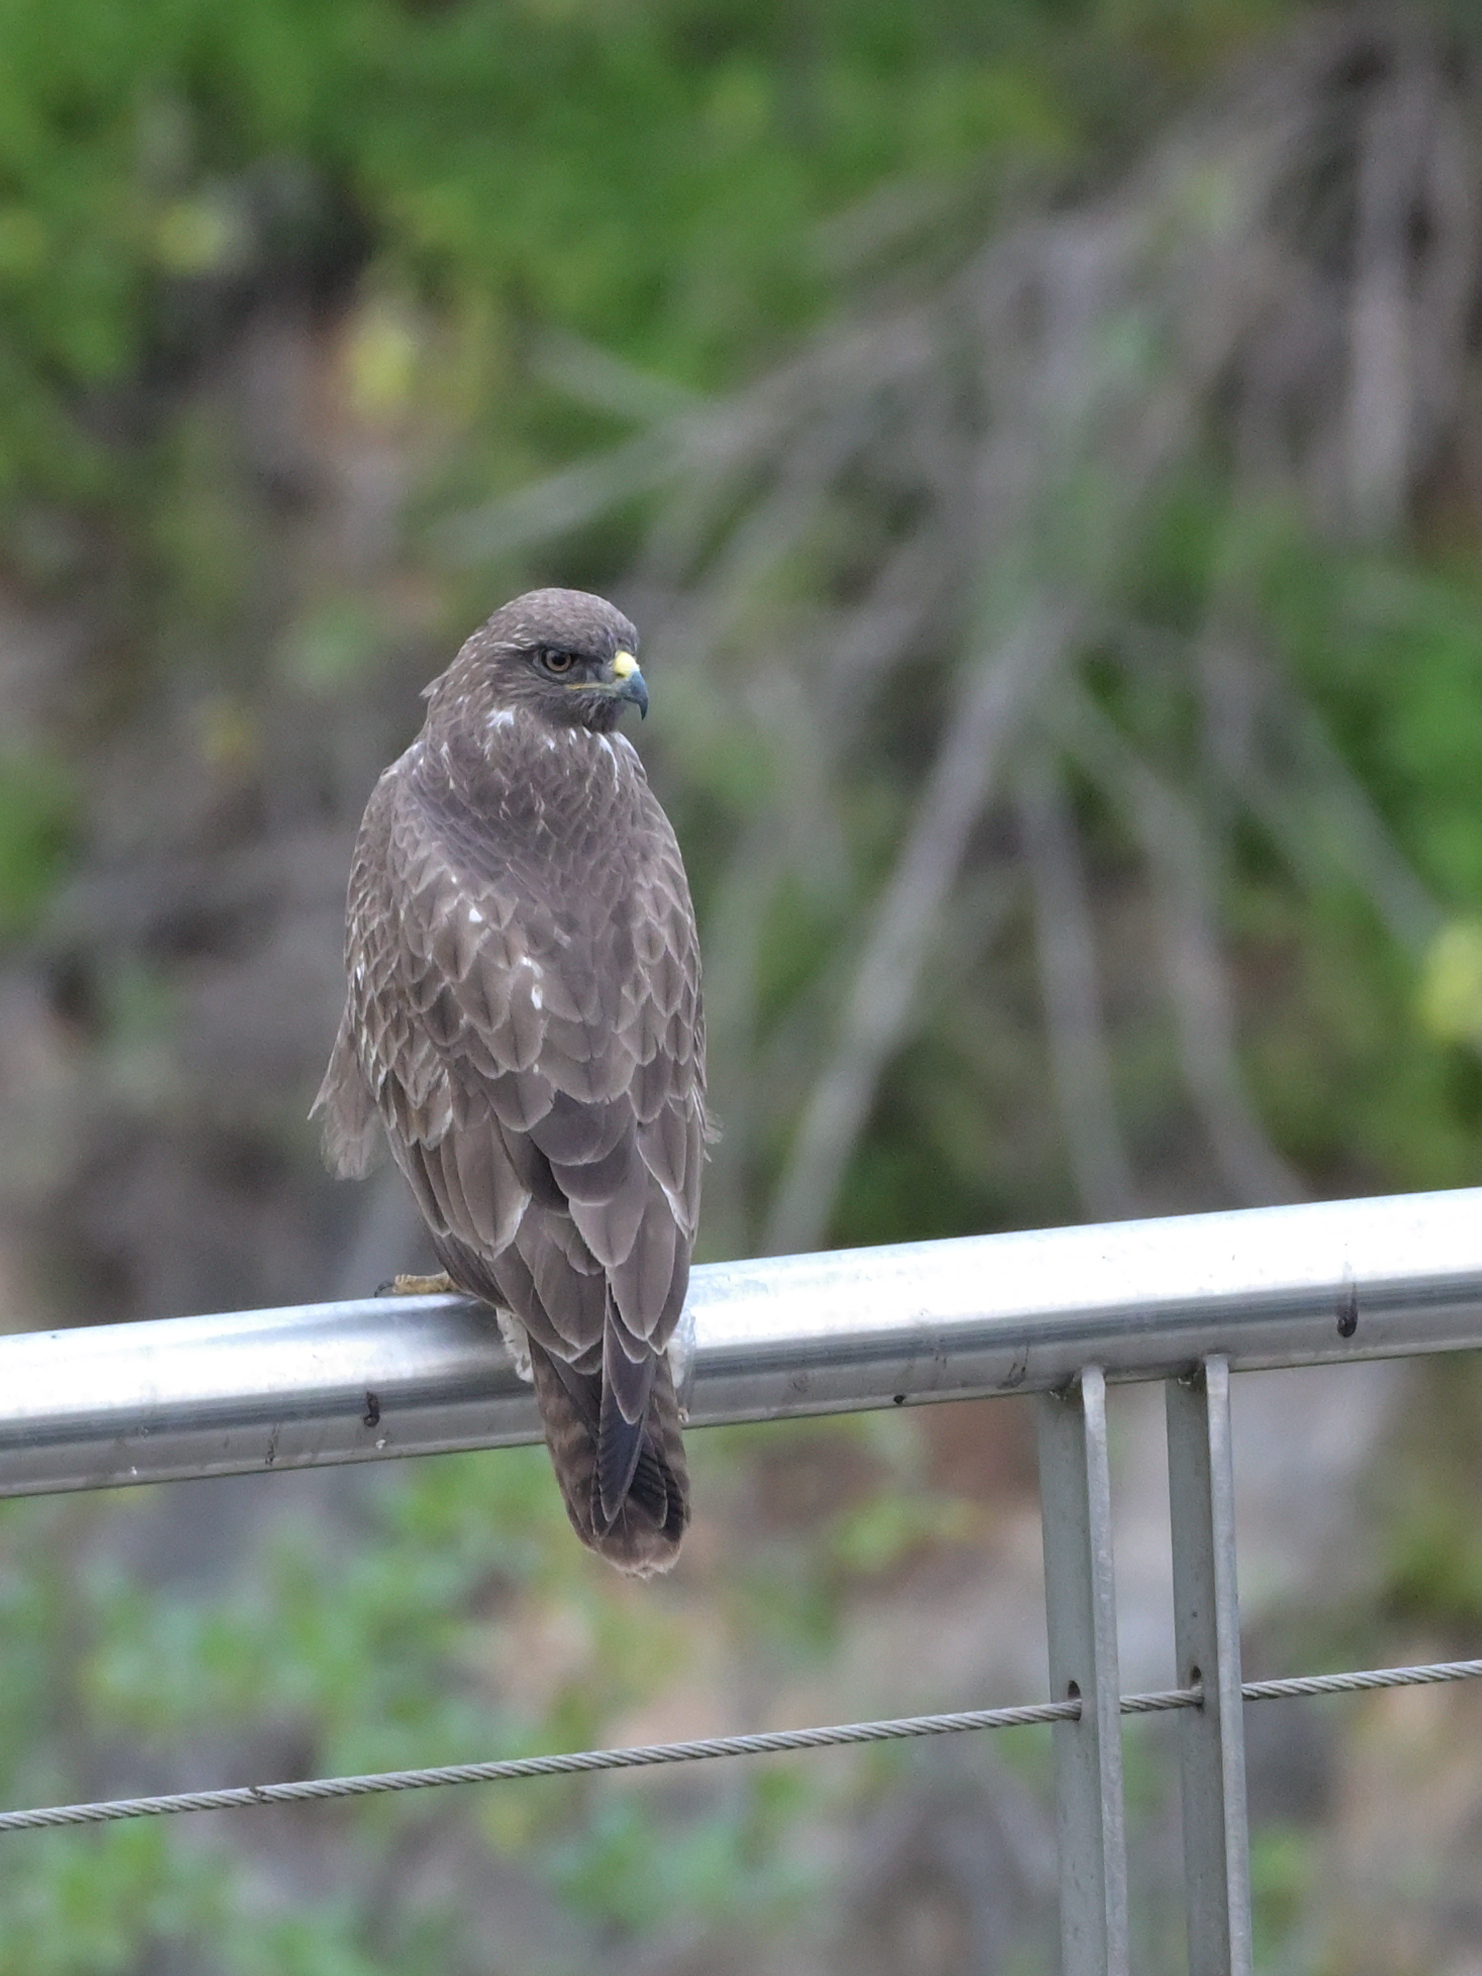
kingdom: Animalia
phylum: Chordata
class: Aves
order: Accipitriformes
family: Accipitridae
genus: Buteo
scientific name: Buteo buteo
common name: Common buzzard
